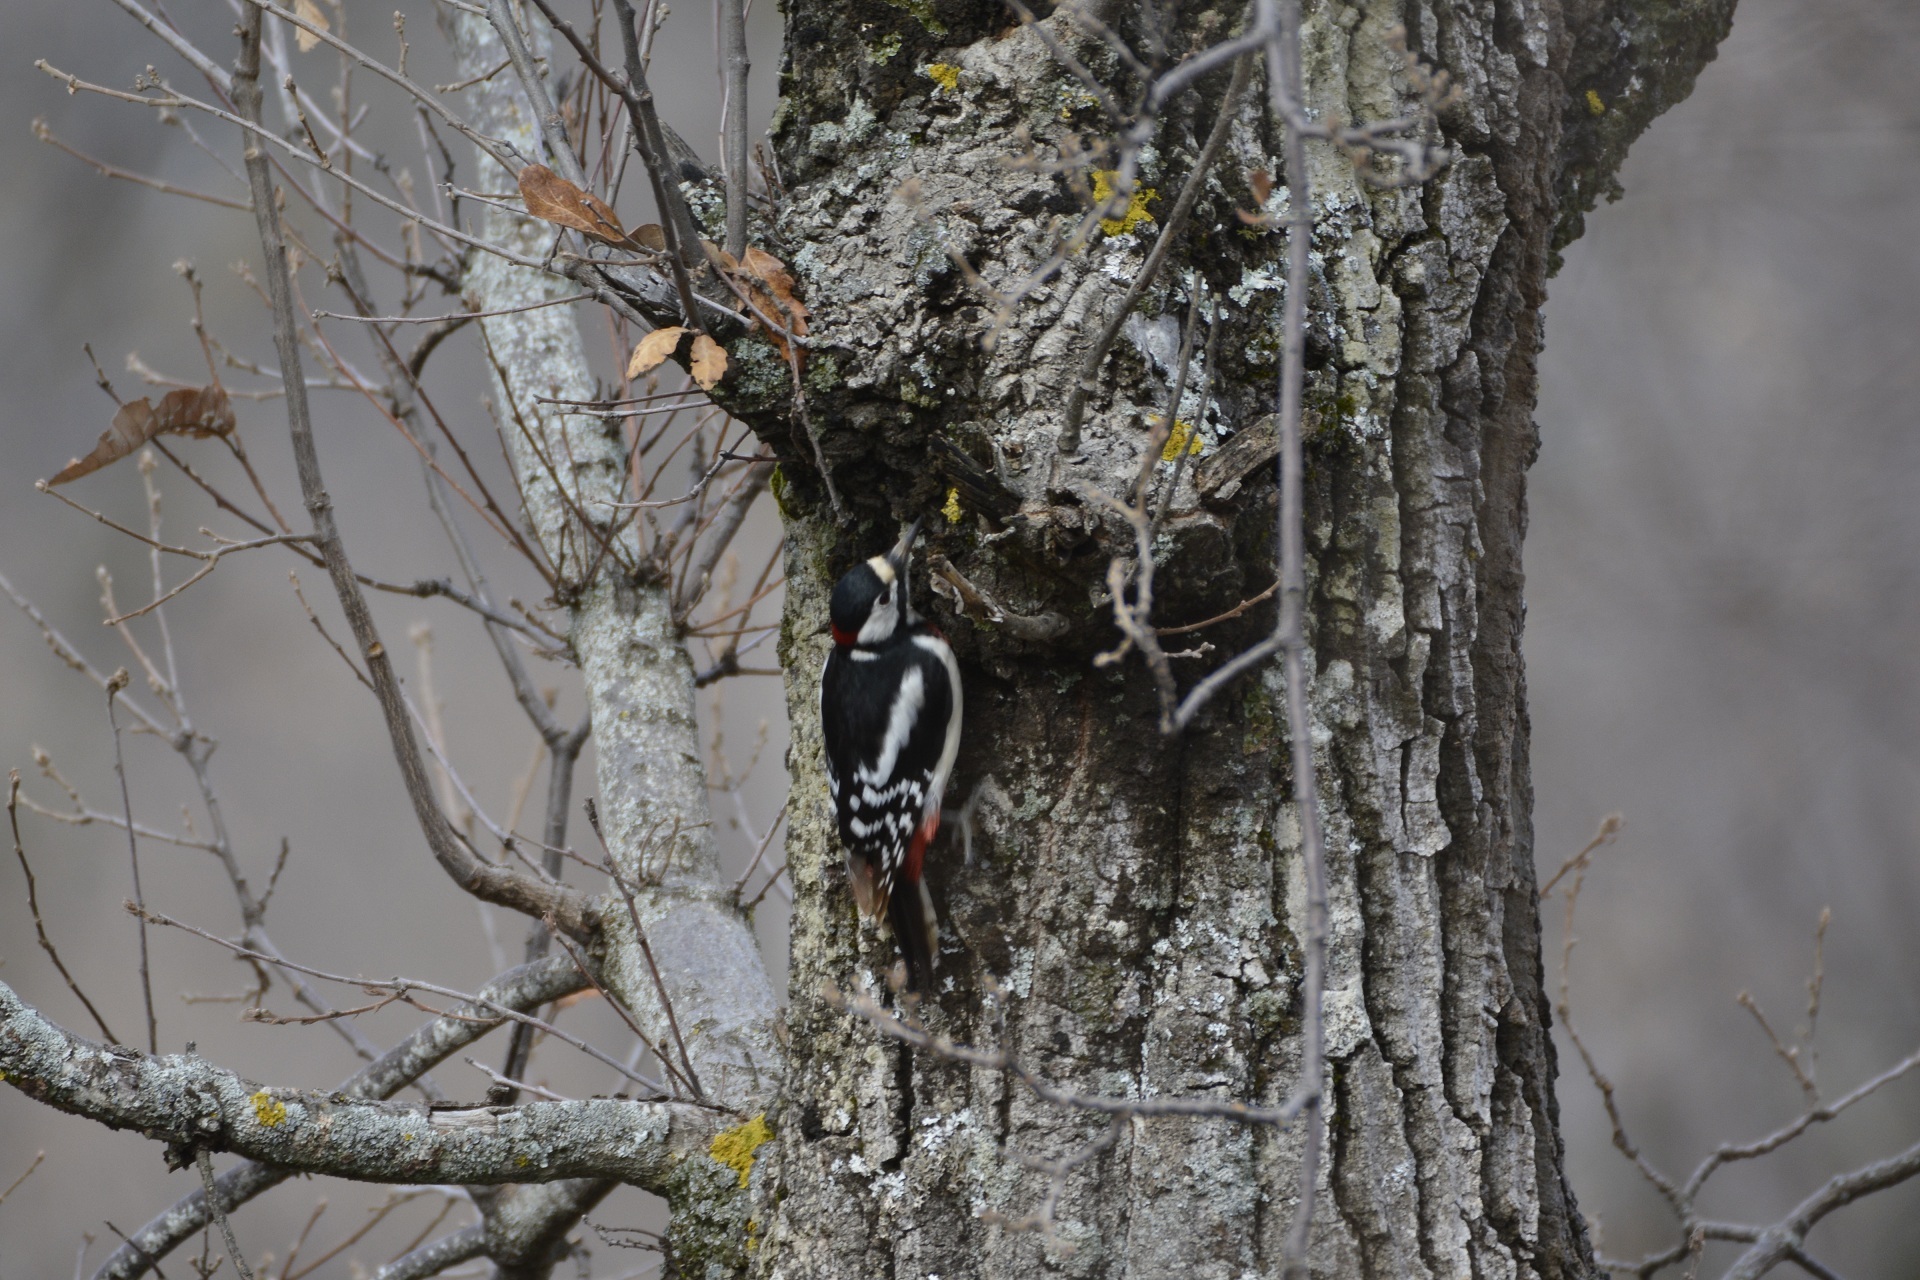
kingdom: Animalia
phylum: Chordata
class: Aves
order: Piciformes
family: Picidae
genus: Dendrocopos
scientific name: Dendrocopos major
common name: Great spotted woodpecker
